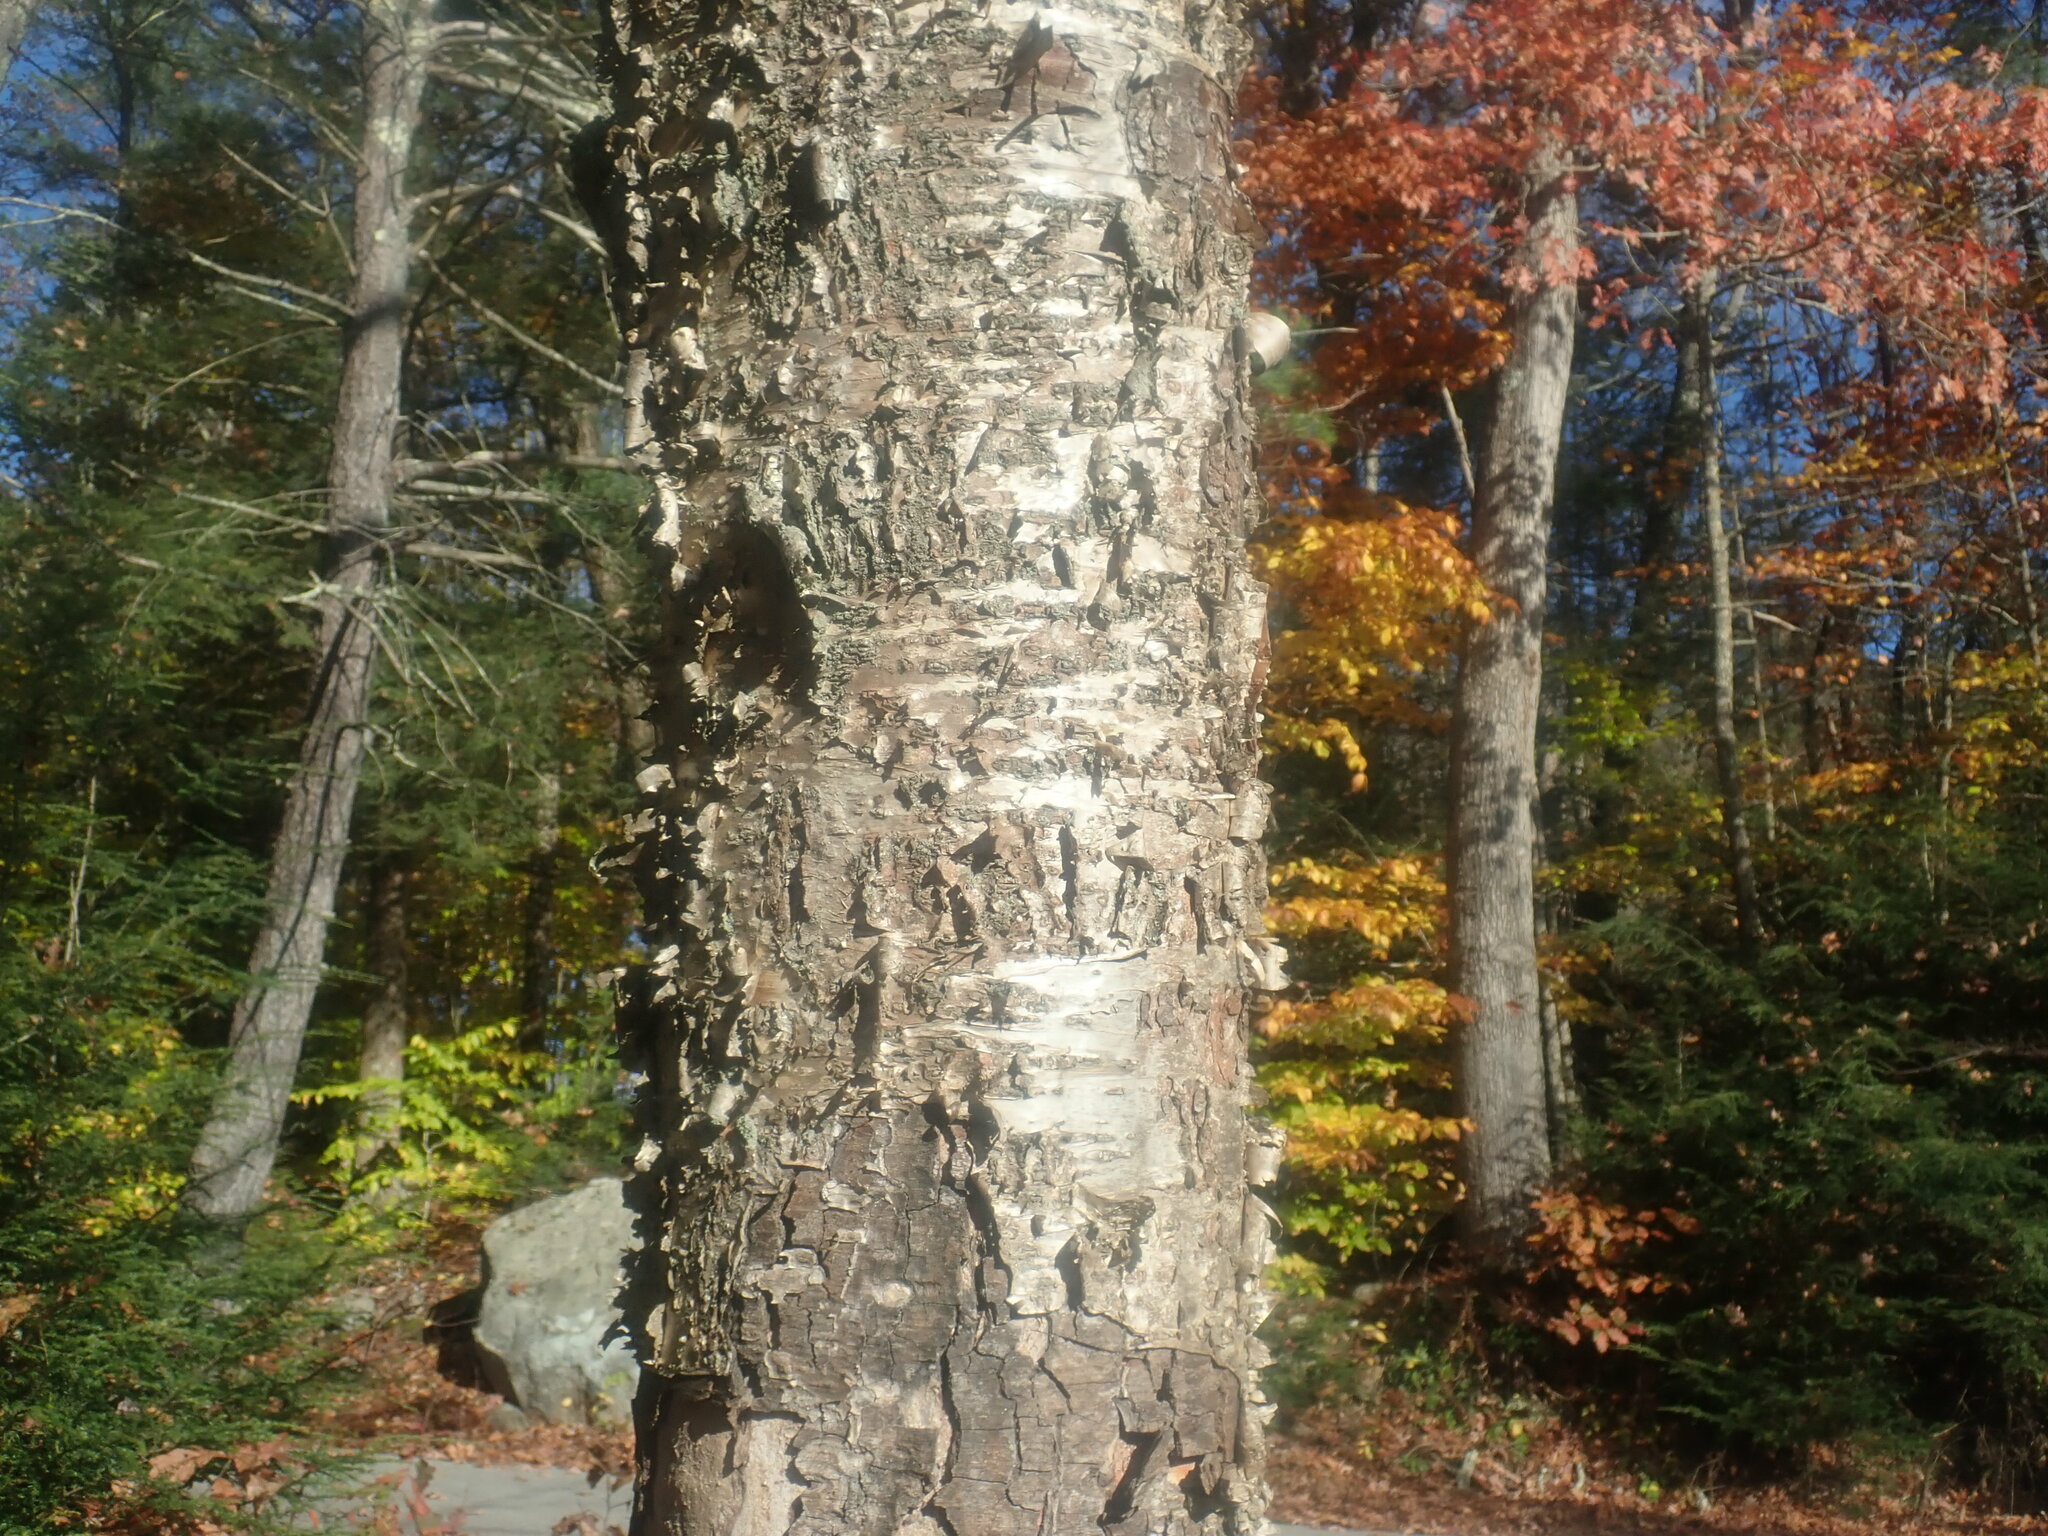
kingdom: Plantae
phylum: Tracheophyta
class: Magnoliopsida
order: Fagales
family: Betulaceae
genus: Betula
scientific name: Betula alleghaniensis
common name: Yellow birch
